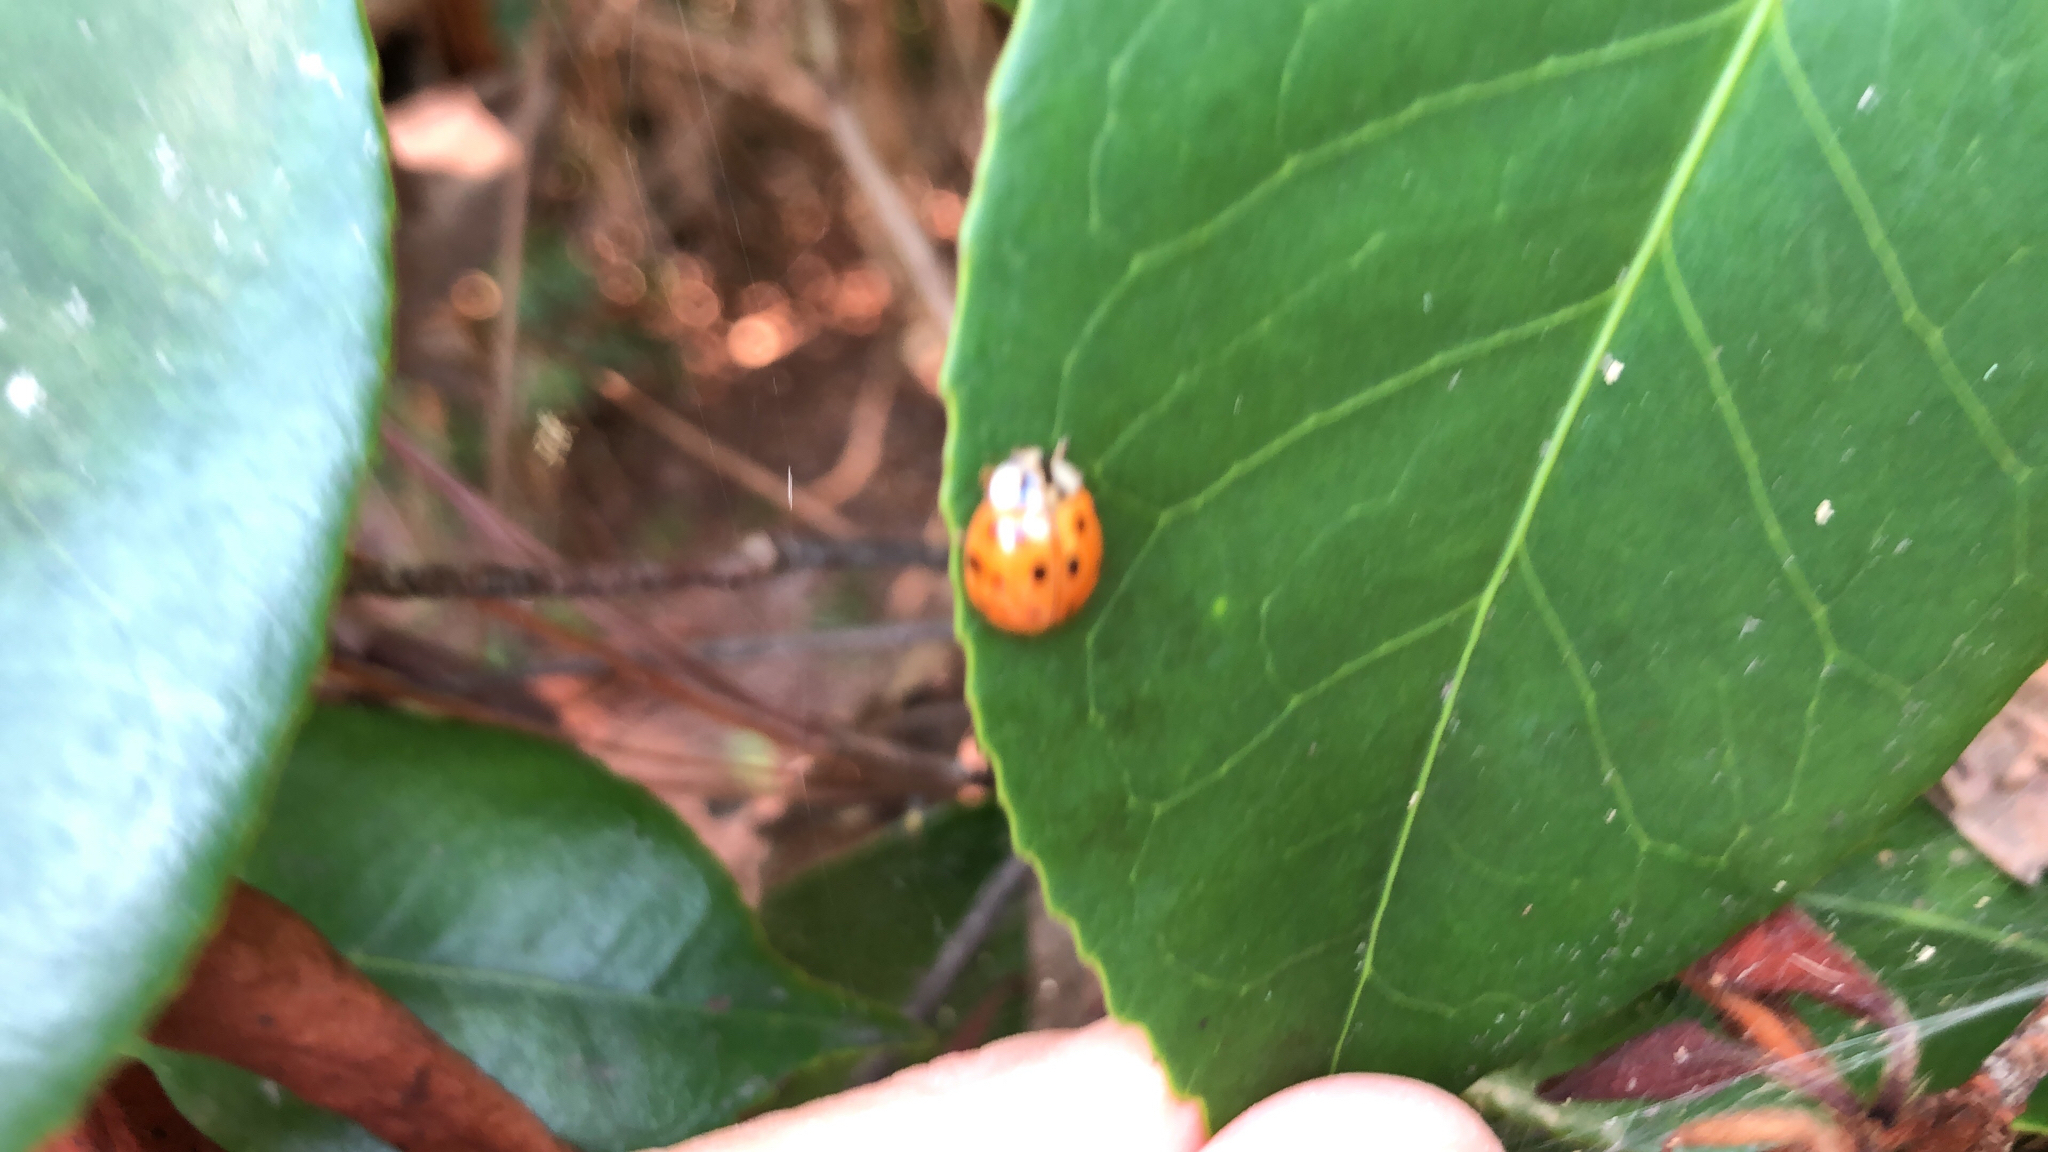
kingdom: Animalia
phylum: Arthropoda
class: Insecta
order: Coleoptera
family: Coccinellidae
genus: Harmonia
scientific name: Harmonia axyridis
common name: Harlequin ladybird
